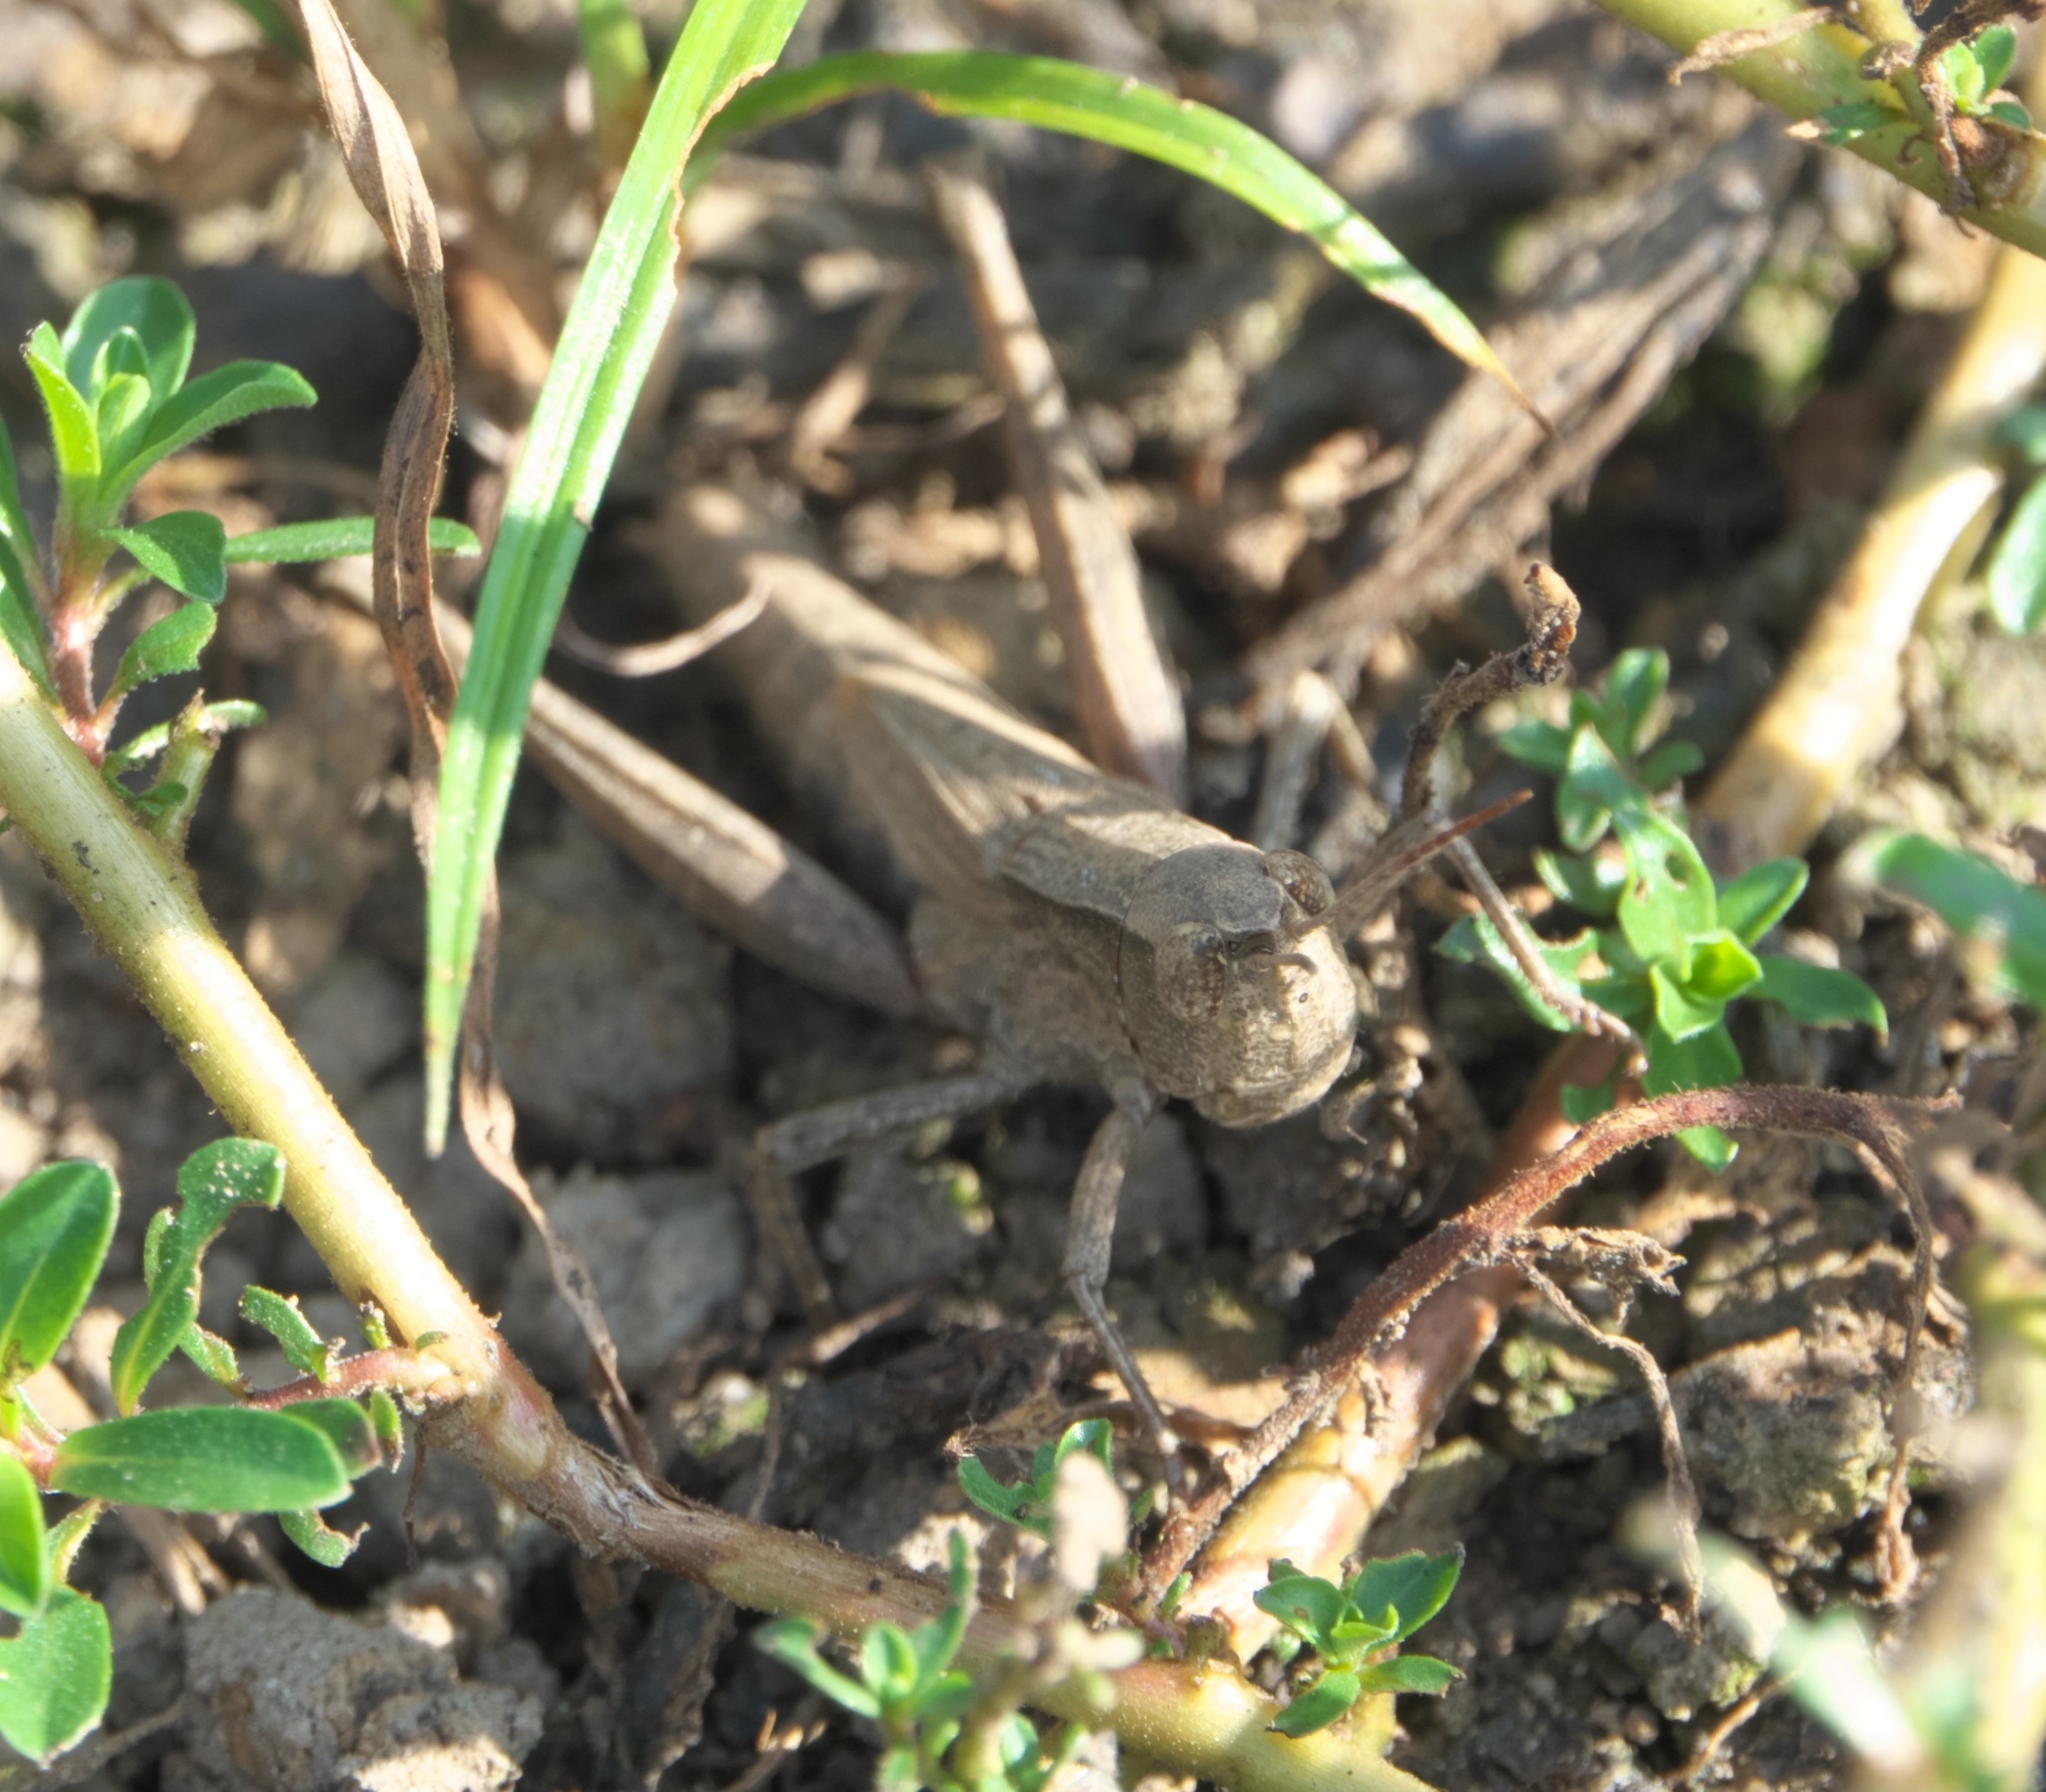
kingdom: Animalia
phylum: Arthropoda
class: Insecta
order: Orthoptera
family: Acrididae
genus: Dichromorpha
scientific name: Dichromorpha viridis
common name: Short-winged green grasshopper
